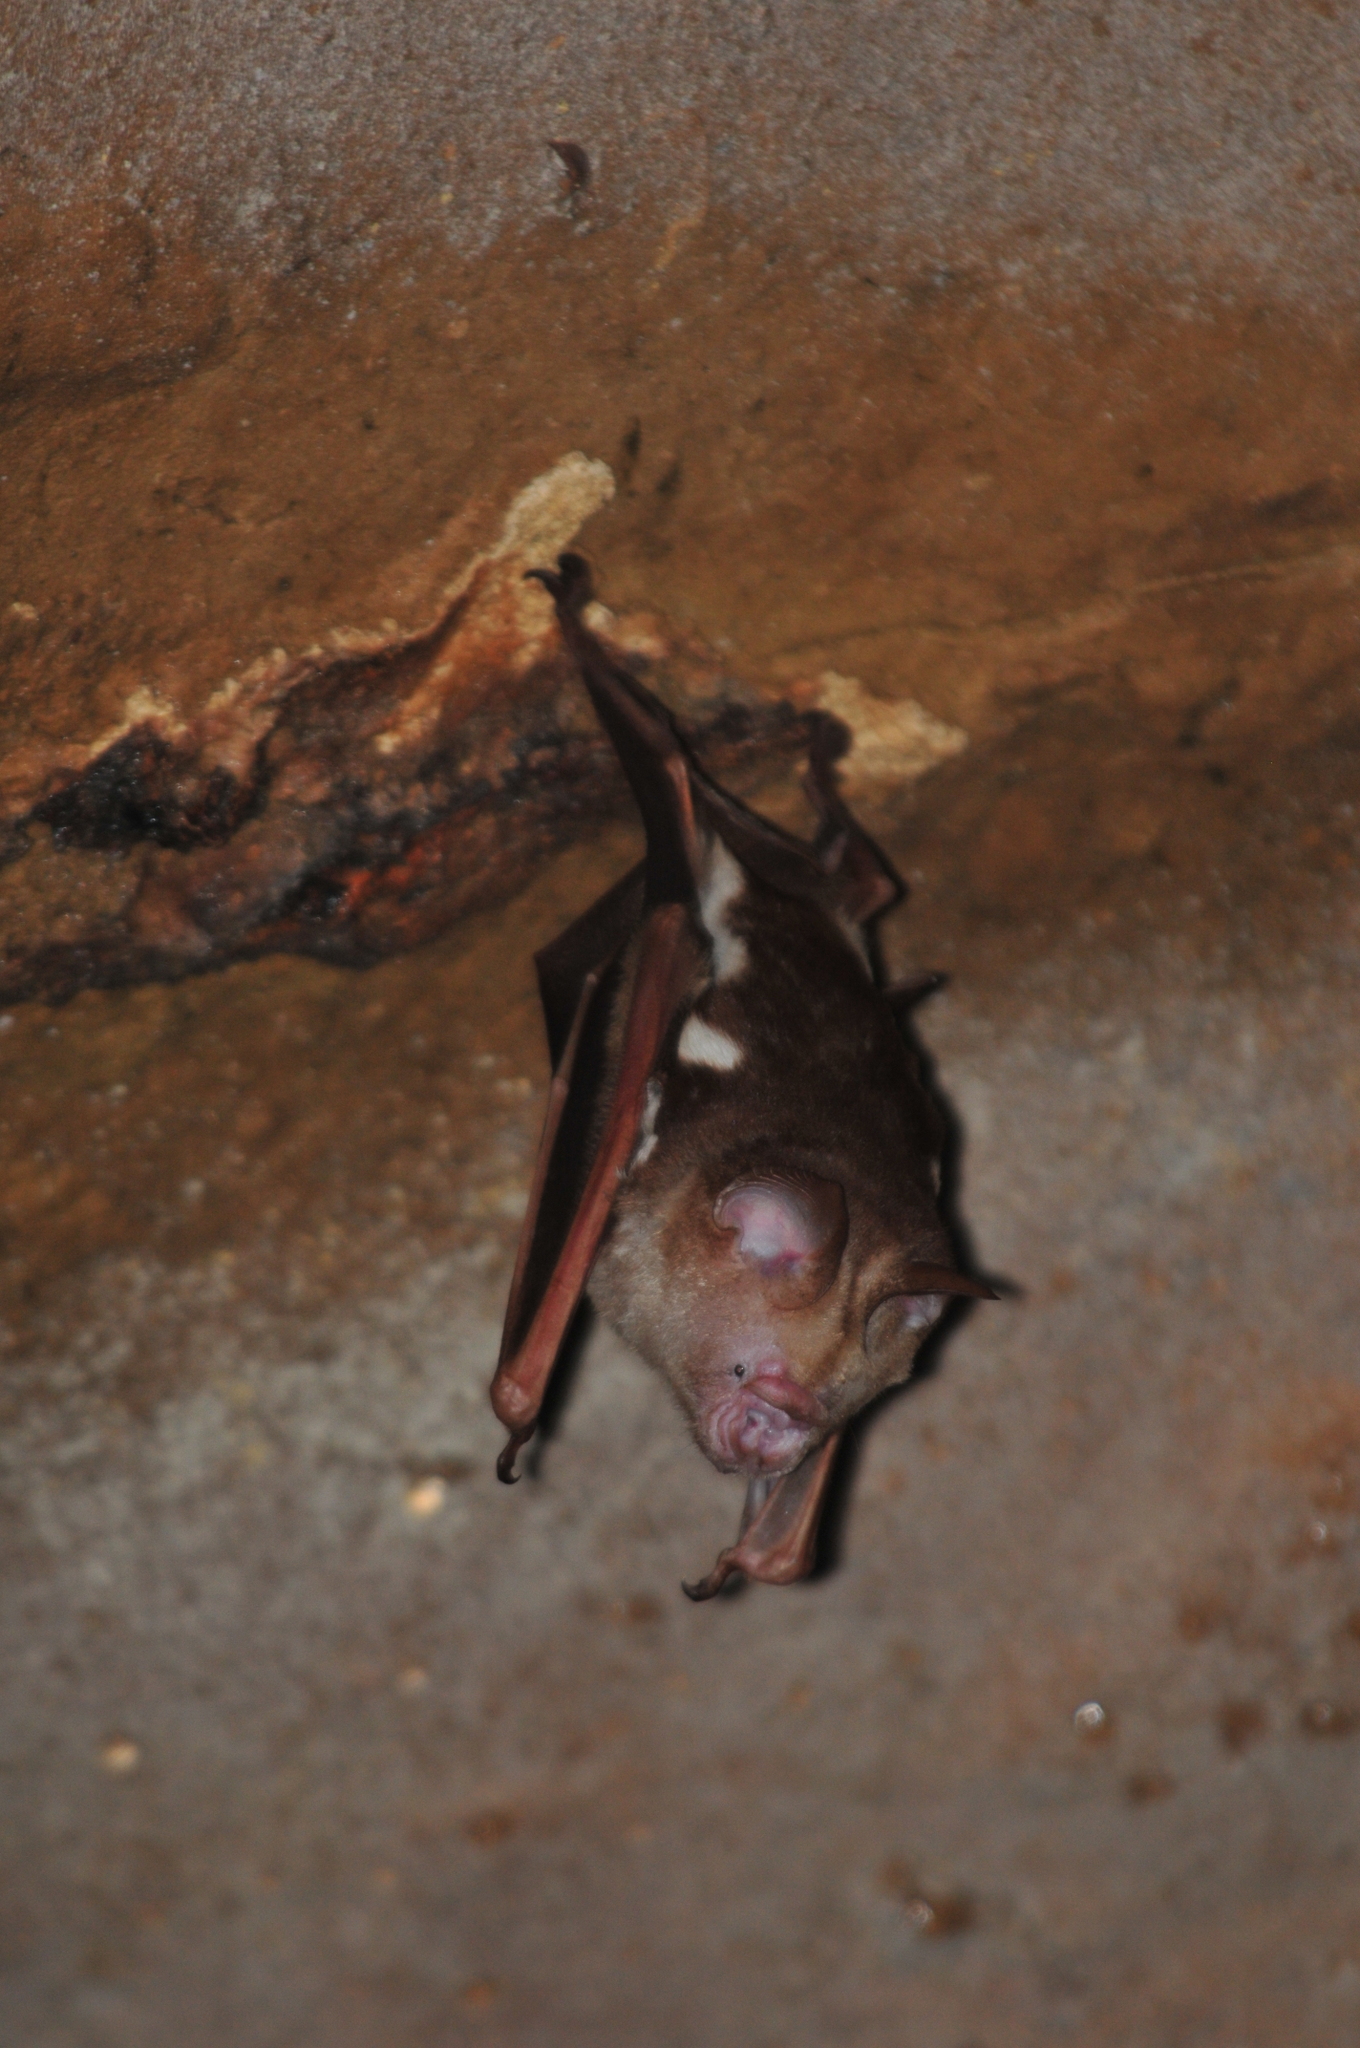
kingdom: Animalia
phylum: Chordata
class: Mammalia
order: Chiroptera
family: Hipposideridae
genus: Hipposideros
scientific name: Hipposideros diadema
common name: Diadem leaf-nosed bat
